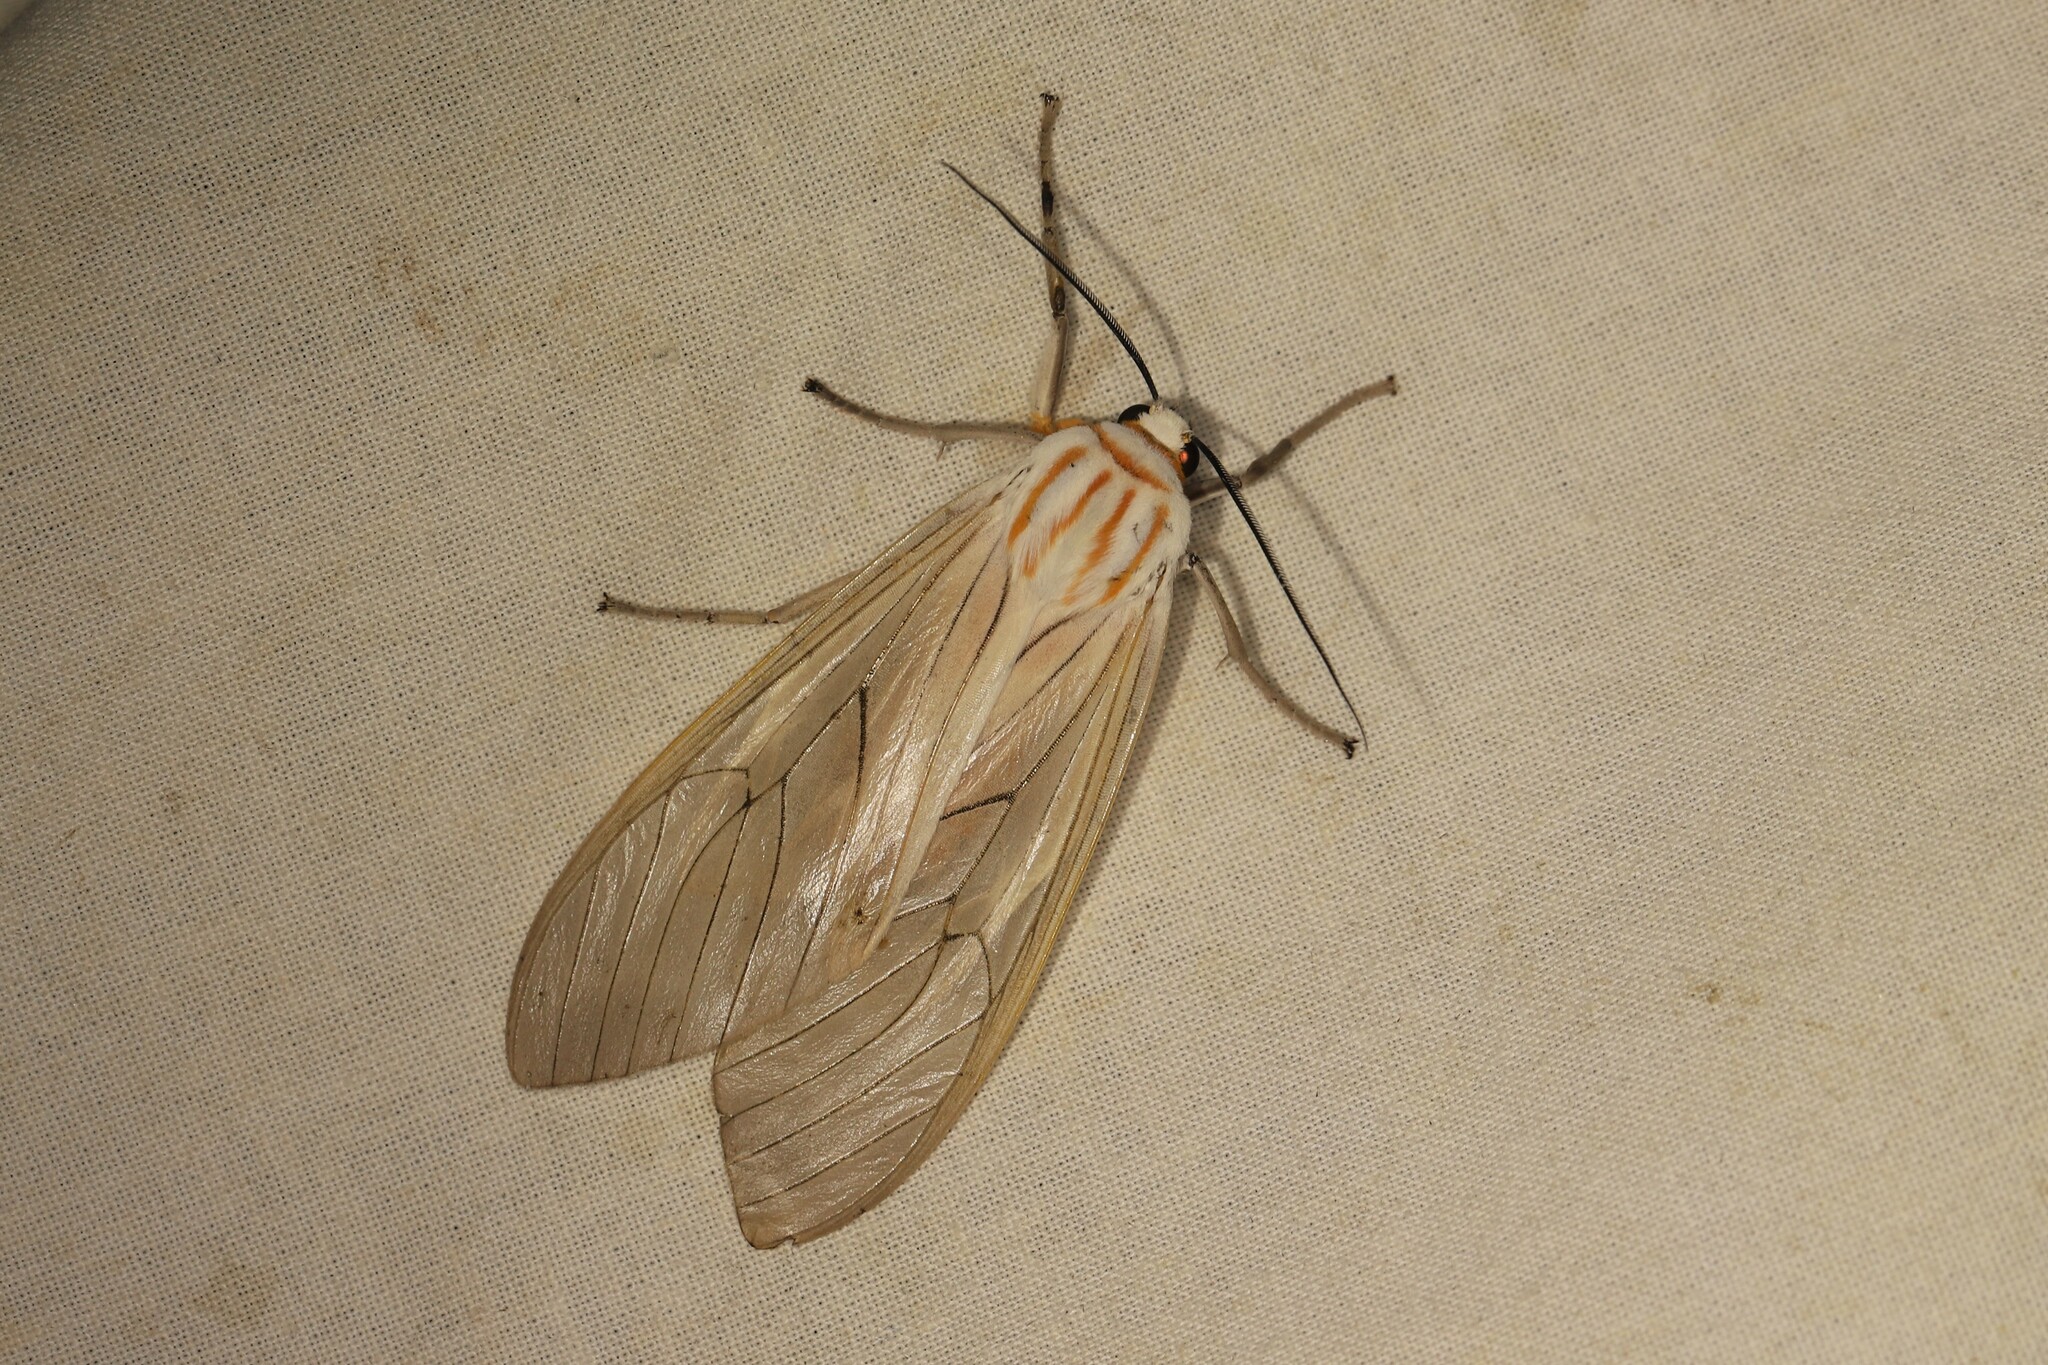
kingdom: Animalia
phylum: Arthropoda
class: Insecta
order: Lepidoptera
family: Erebidae
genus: Amastus
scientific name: Amastus aconia
